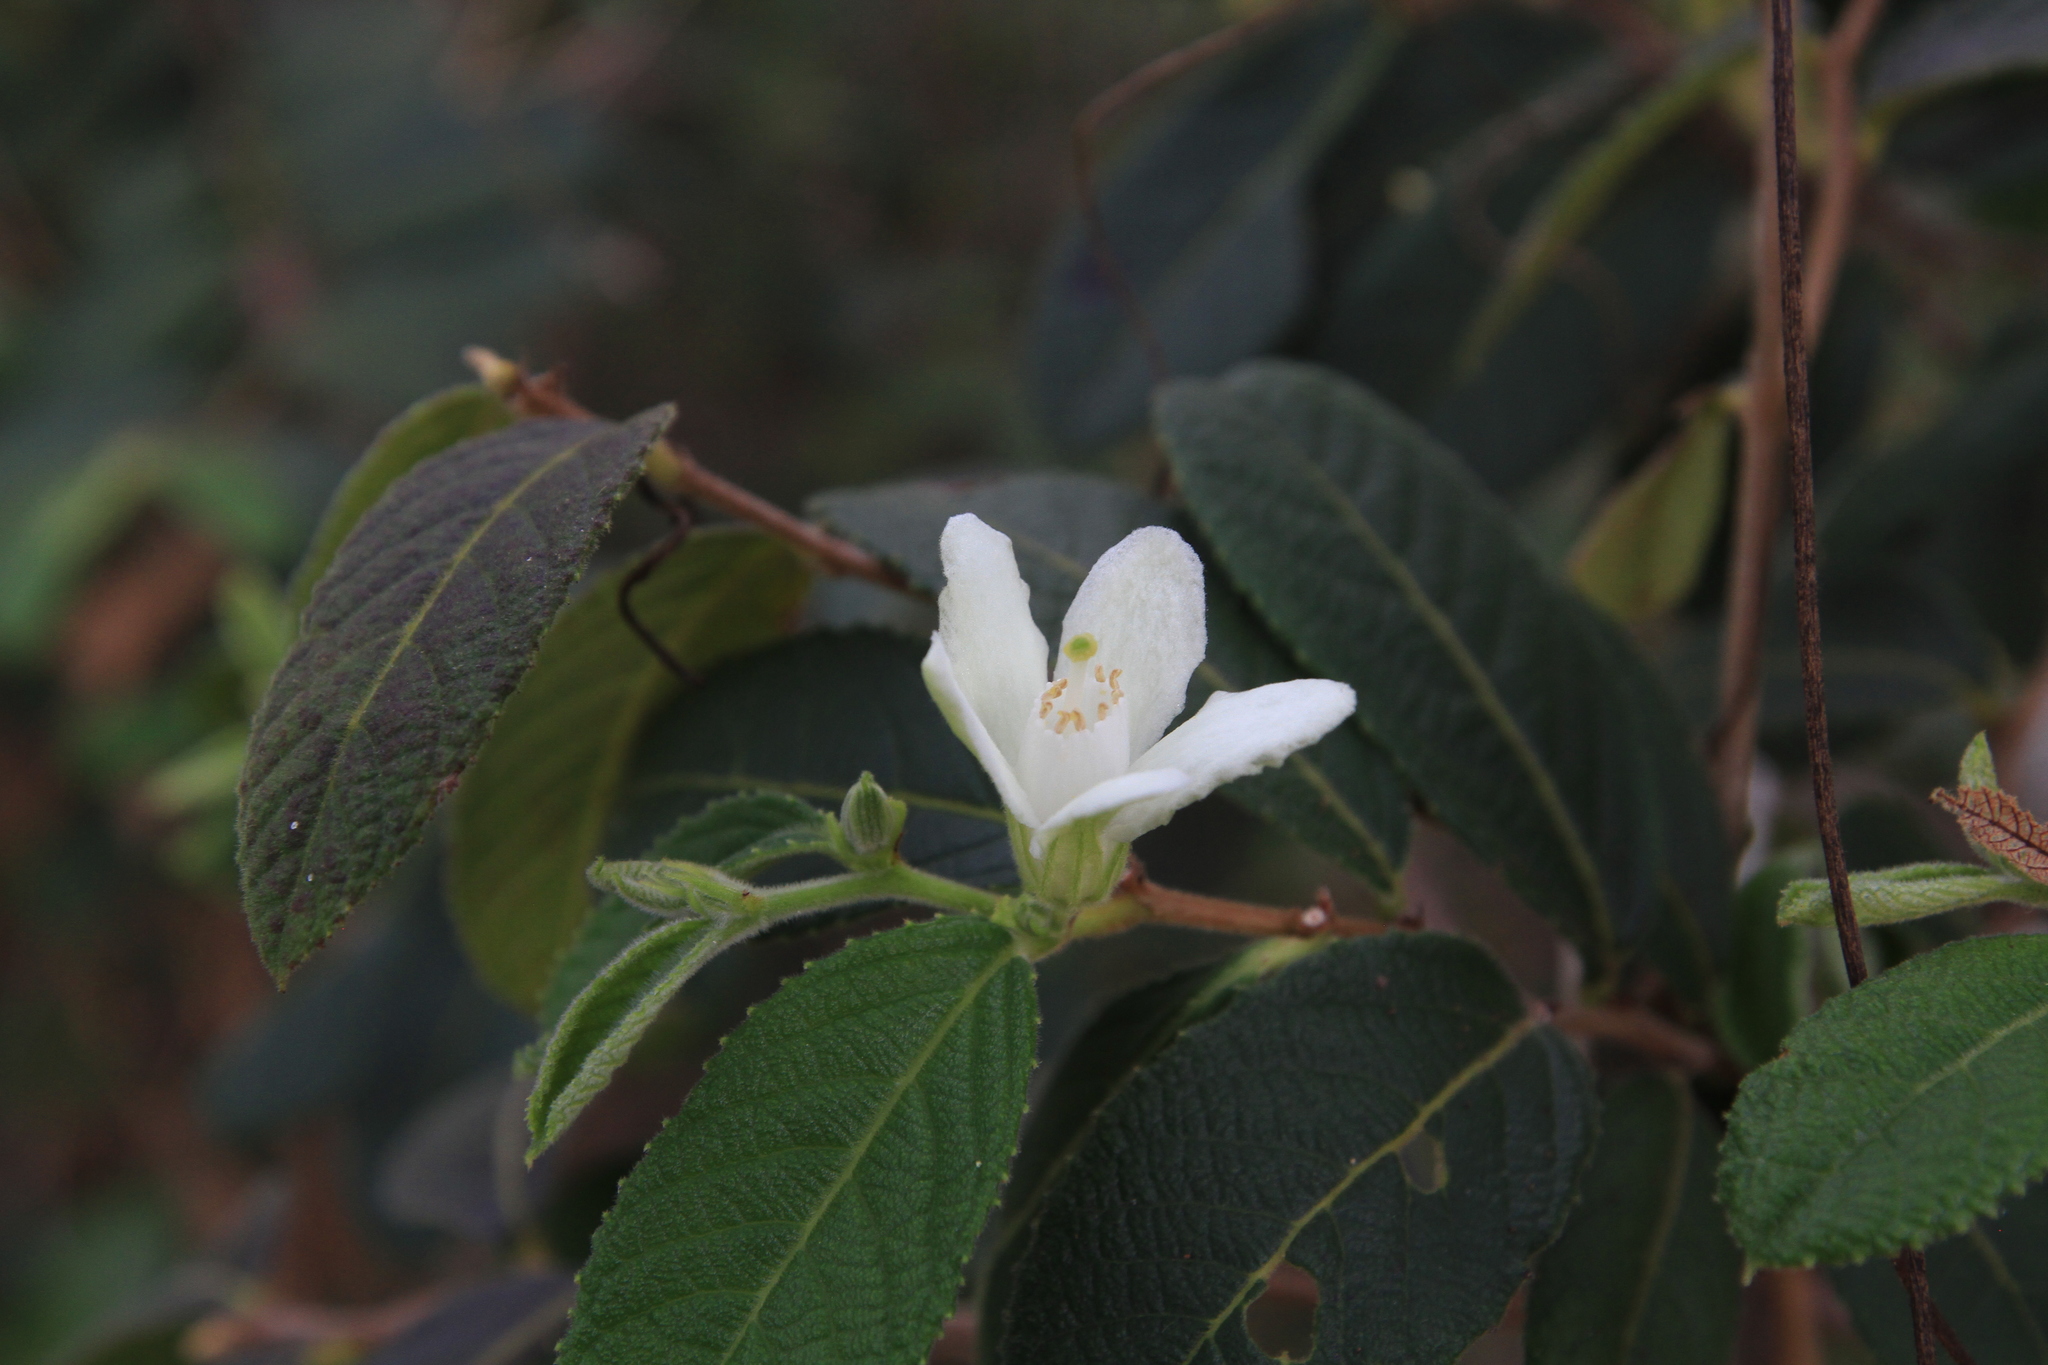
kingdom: Plantae
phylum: Tracheophyta
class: Magnoliopsida
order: Malpighiales
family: Salicaceae
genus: Casearia
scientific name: Casearia dodecandra
